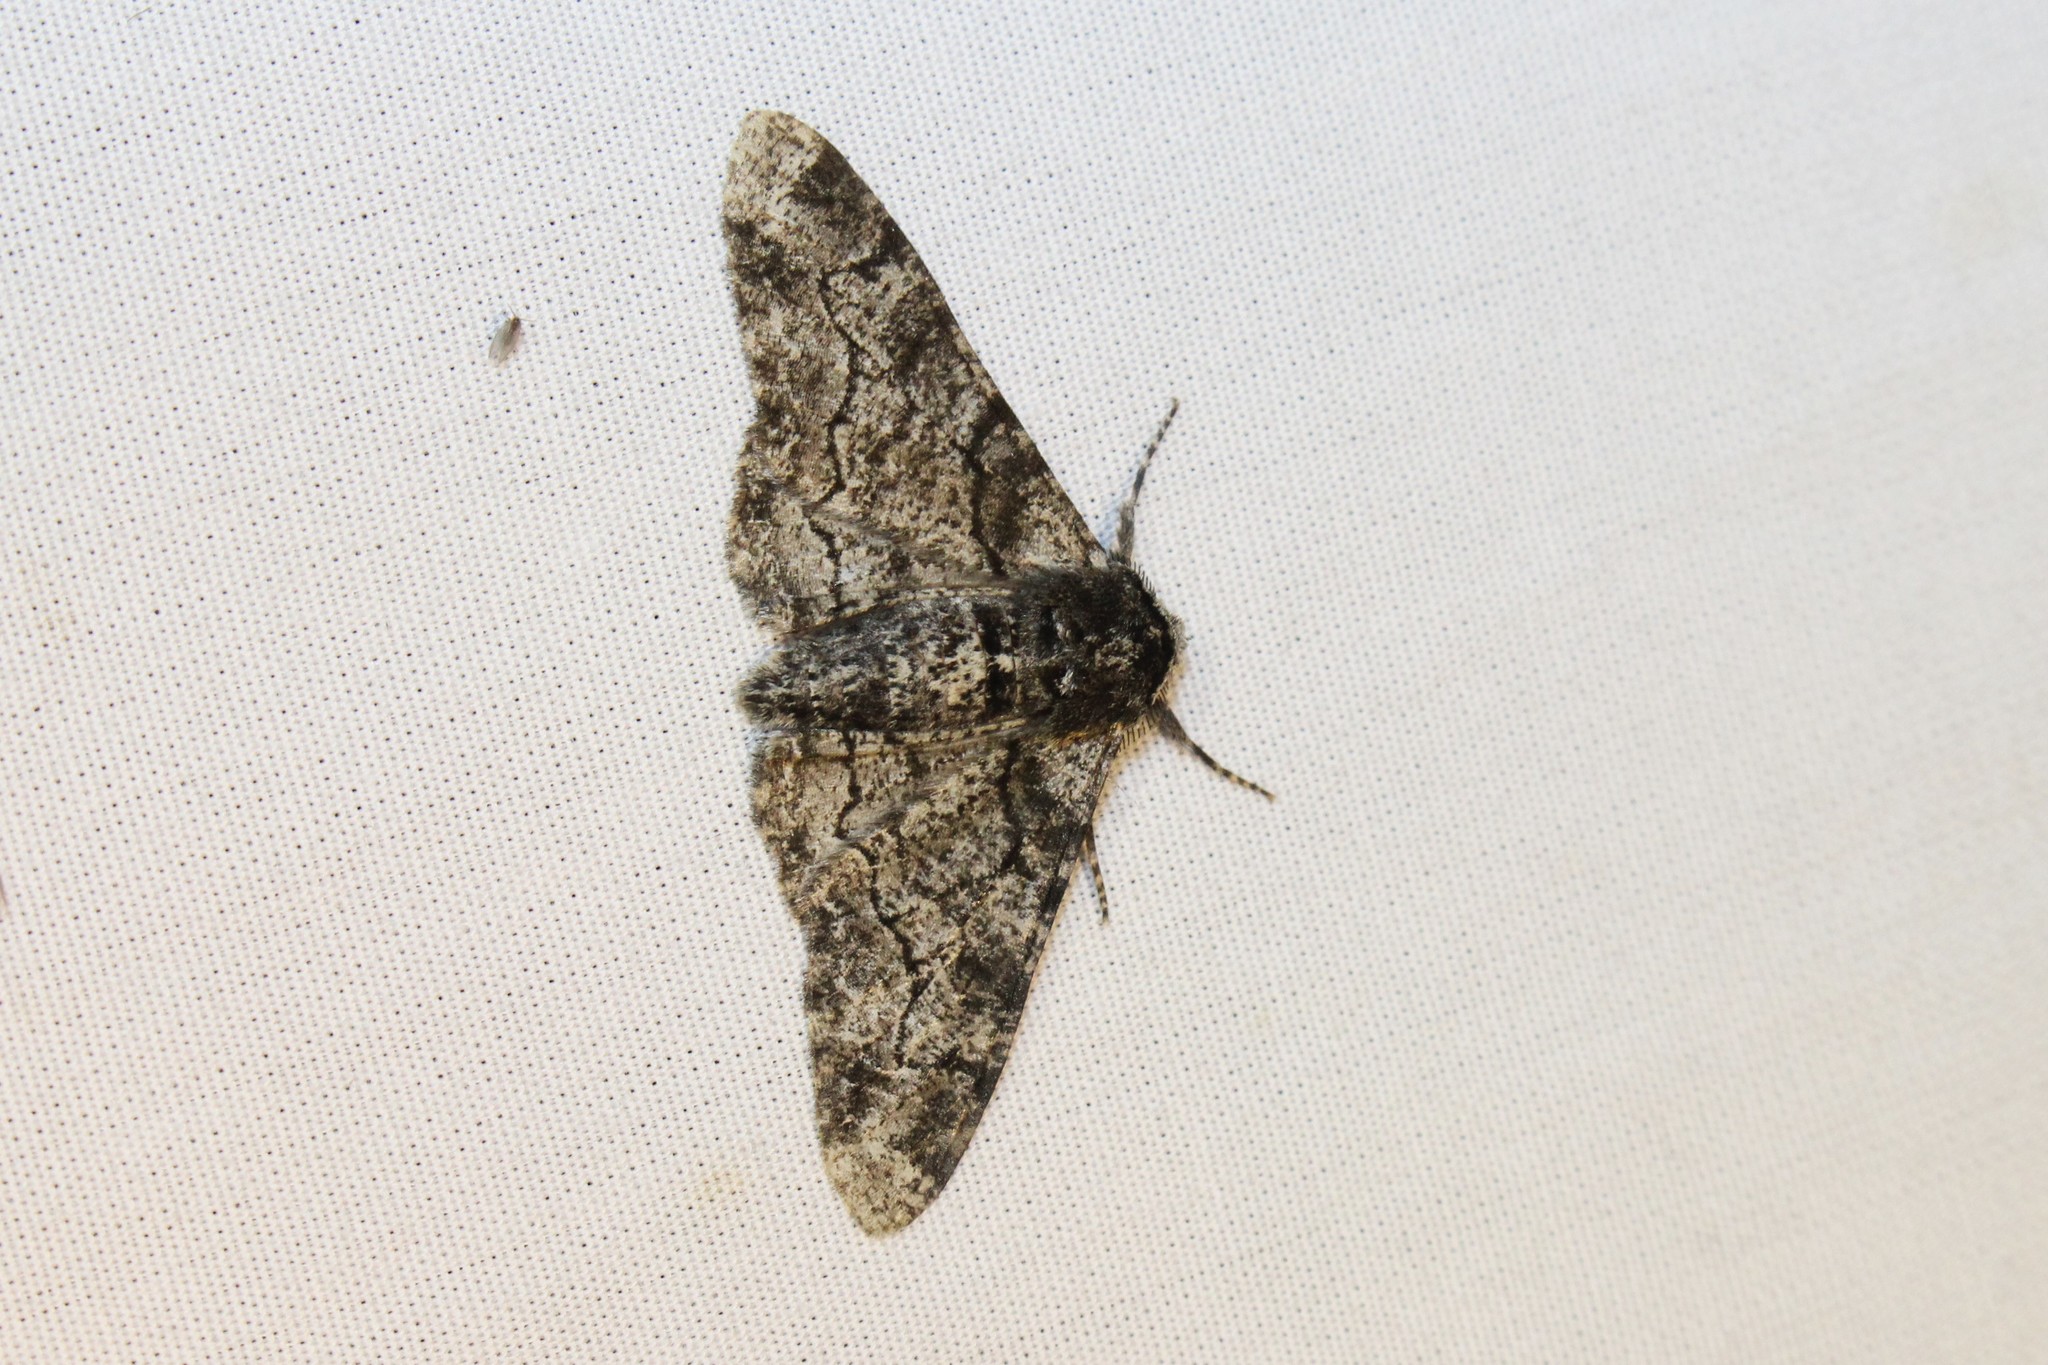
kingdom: Animalia
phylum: Arthropoda
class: Insecta
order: Lepidoptera
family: Geometridae
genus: Biston
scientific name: Biston betularia
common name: Peppered moth
